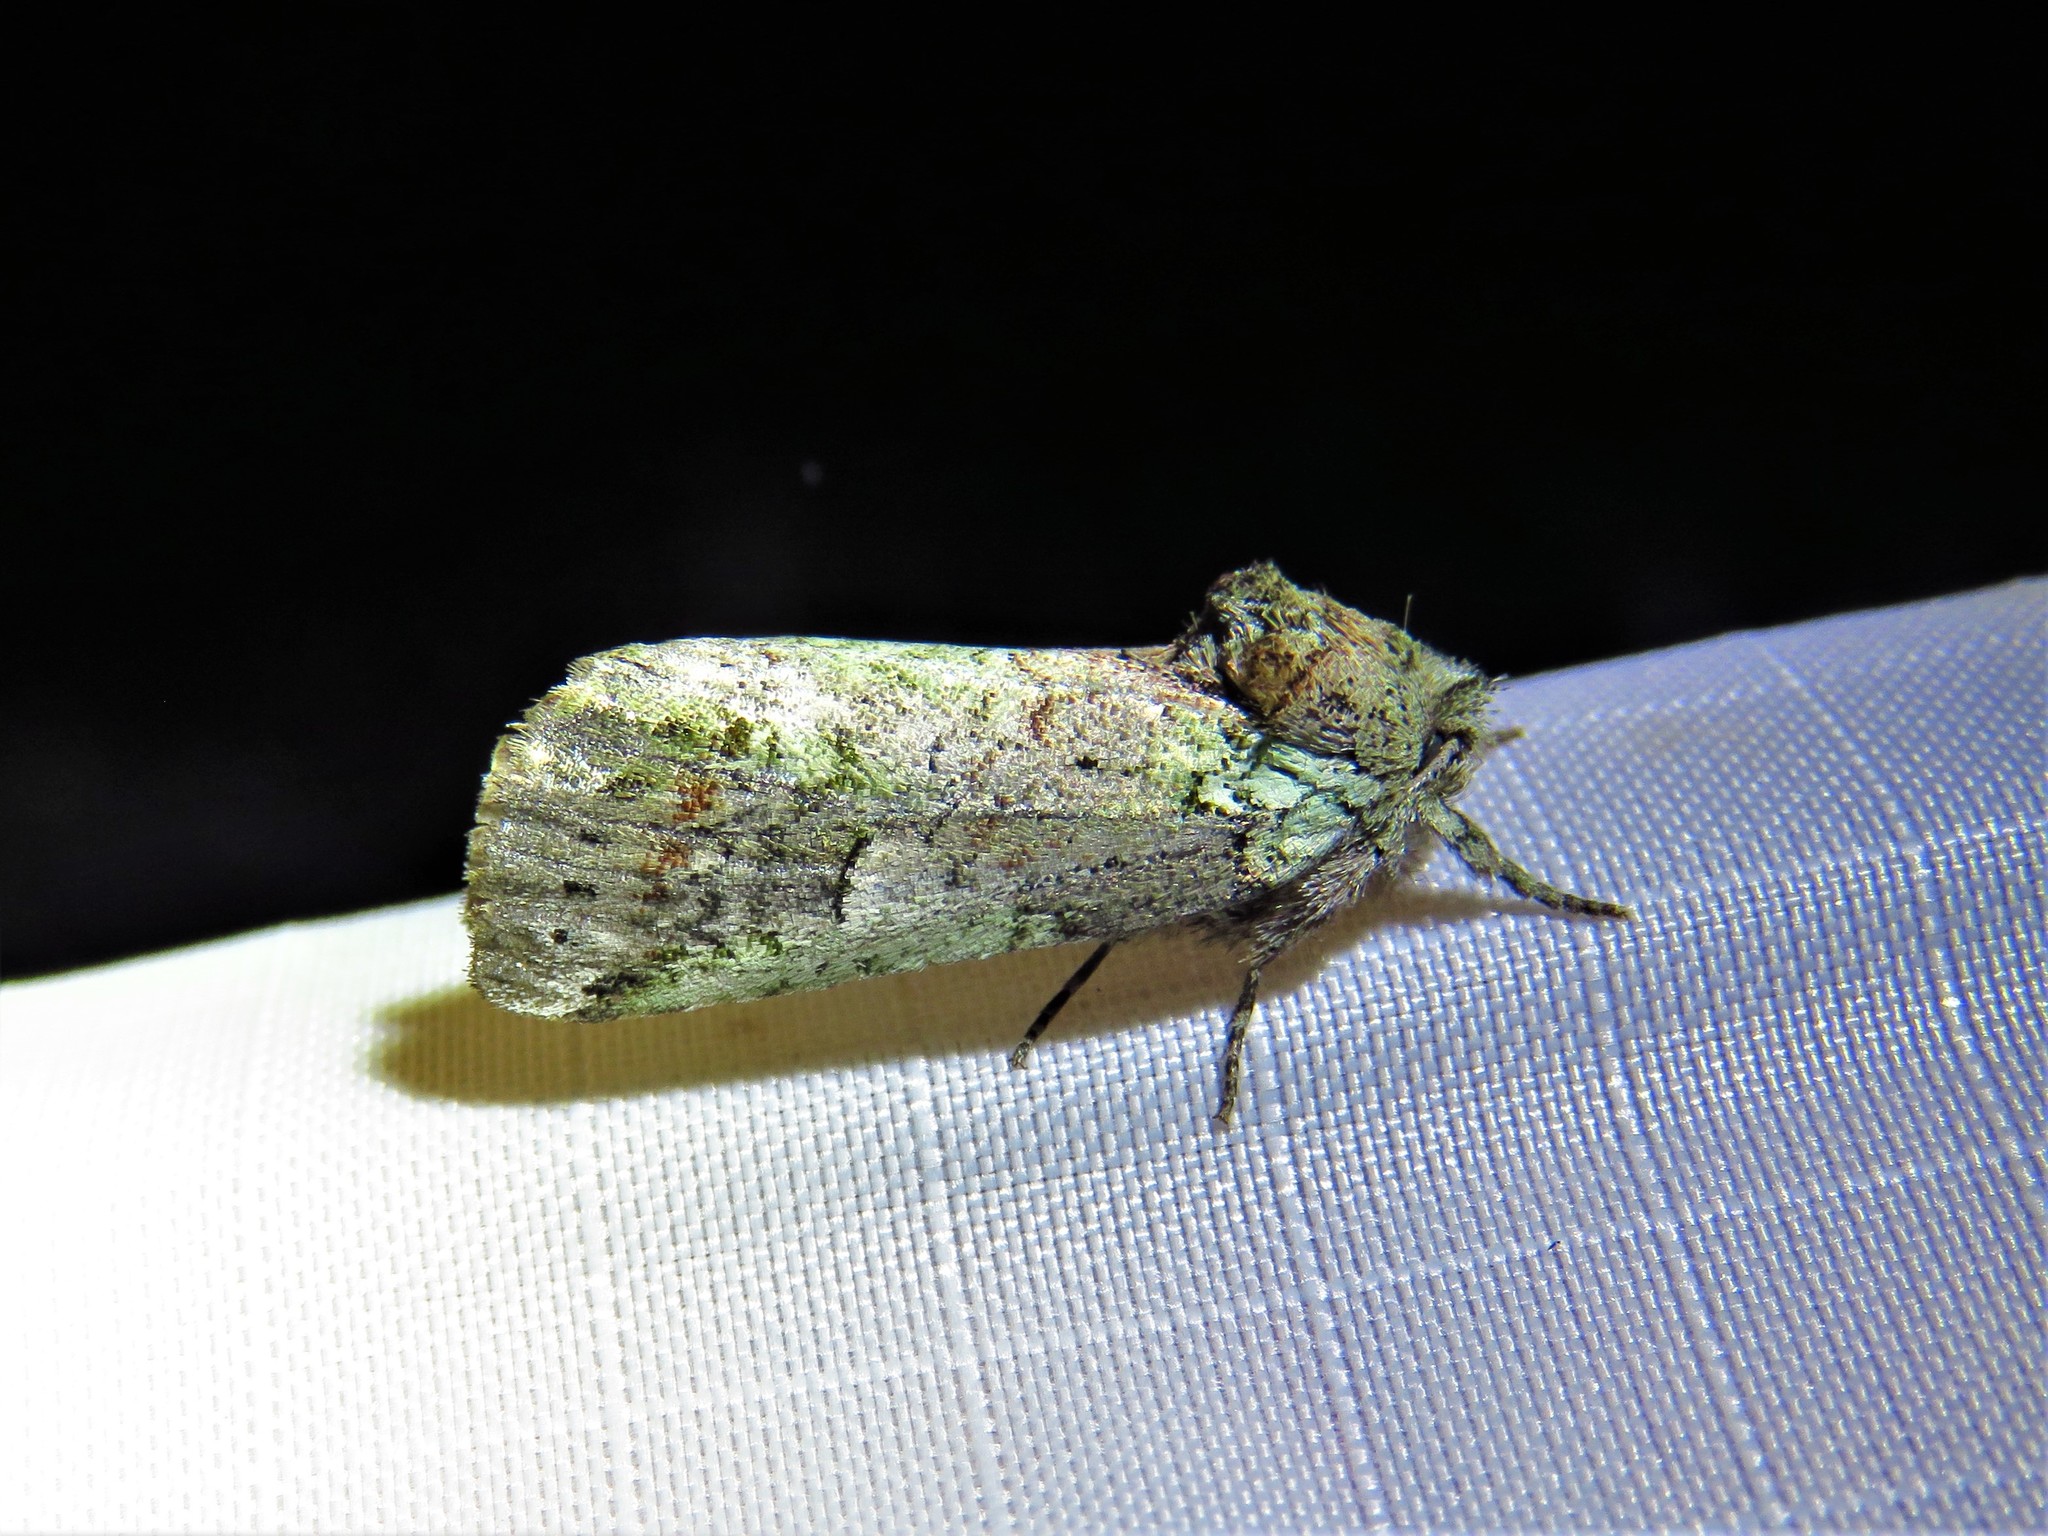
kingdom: Animalia
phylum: Arthropoda
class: Insecta
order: Lepidoptera
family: Notodontidae
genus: Schizura
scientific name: Schizura
